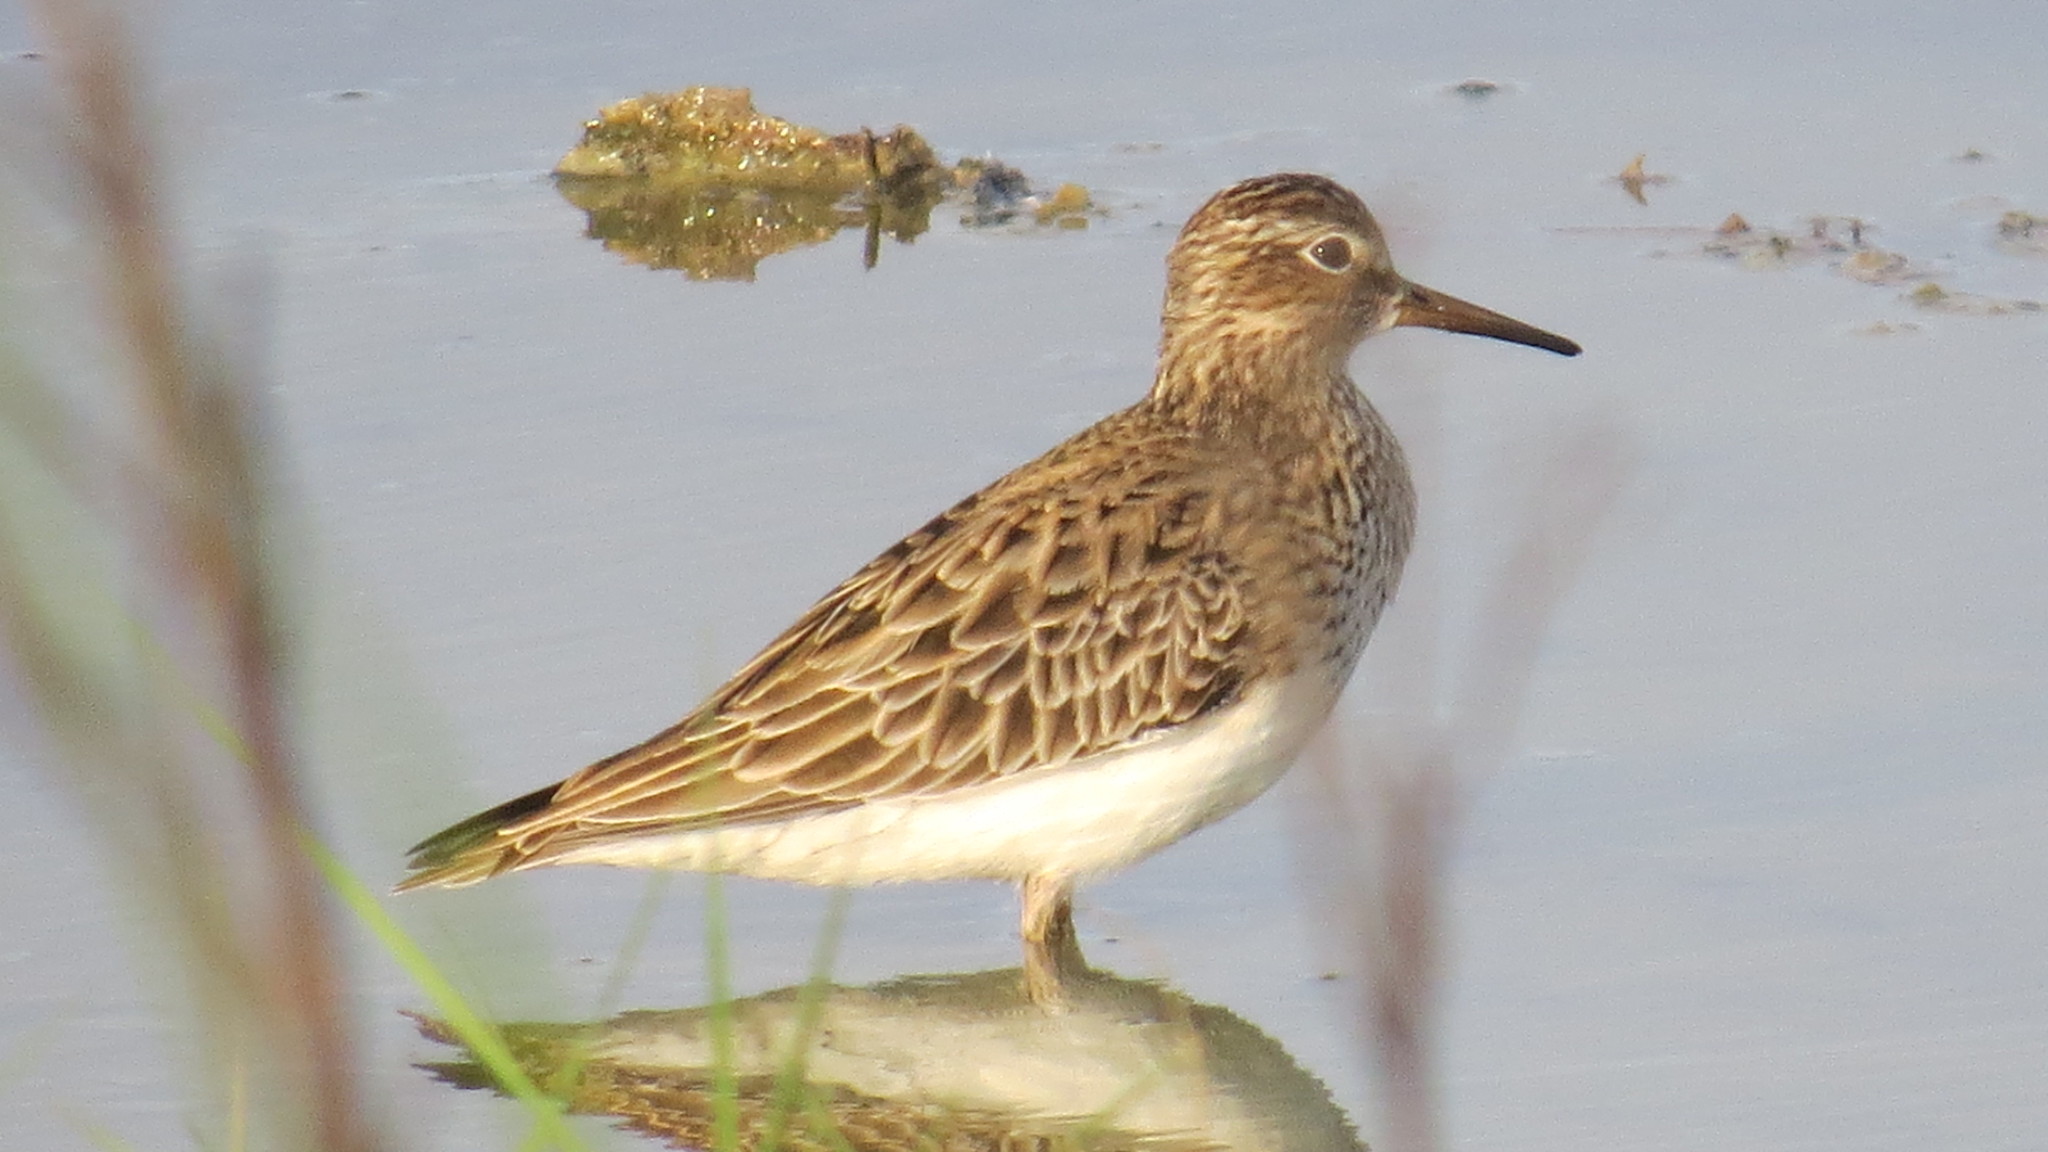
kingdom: Animalia
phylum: Chordata
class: Aves
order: Charadriiformes
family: Scolopacidae
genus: Calidris
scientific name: Calidris melanotos
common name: Pectoral sandpiper
